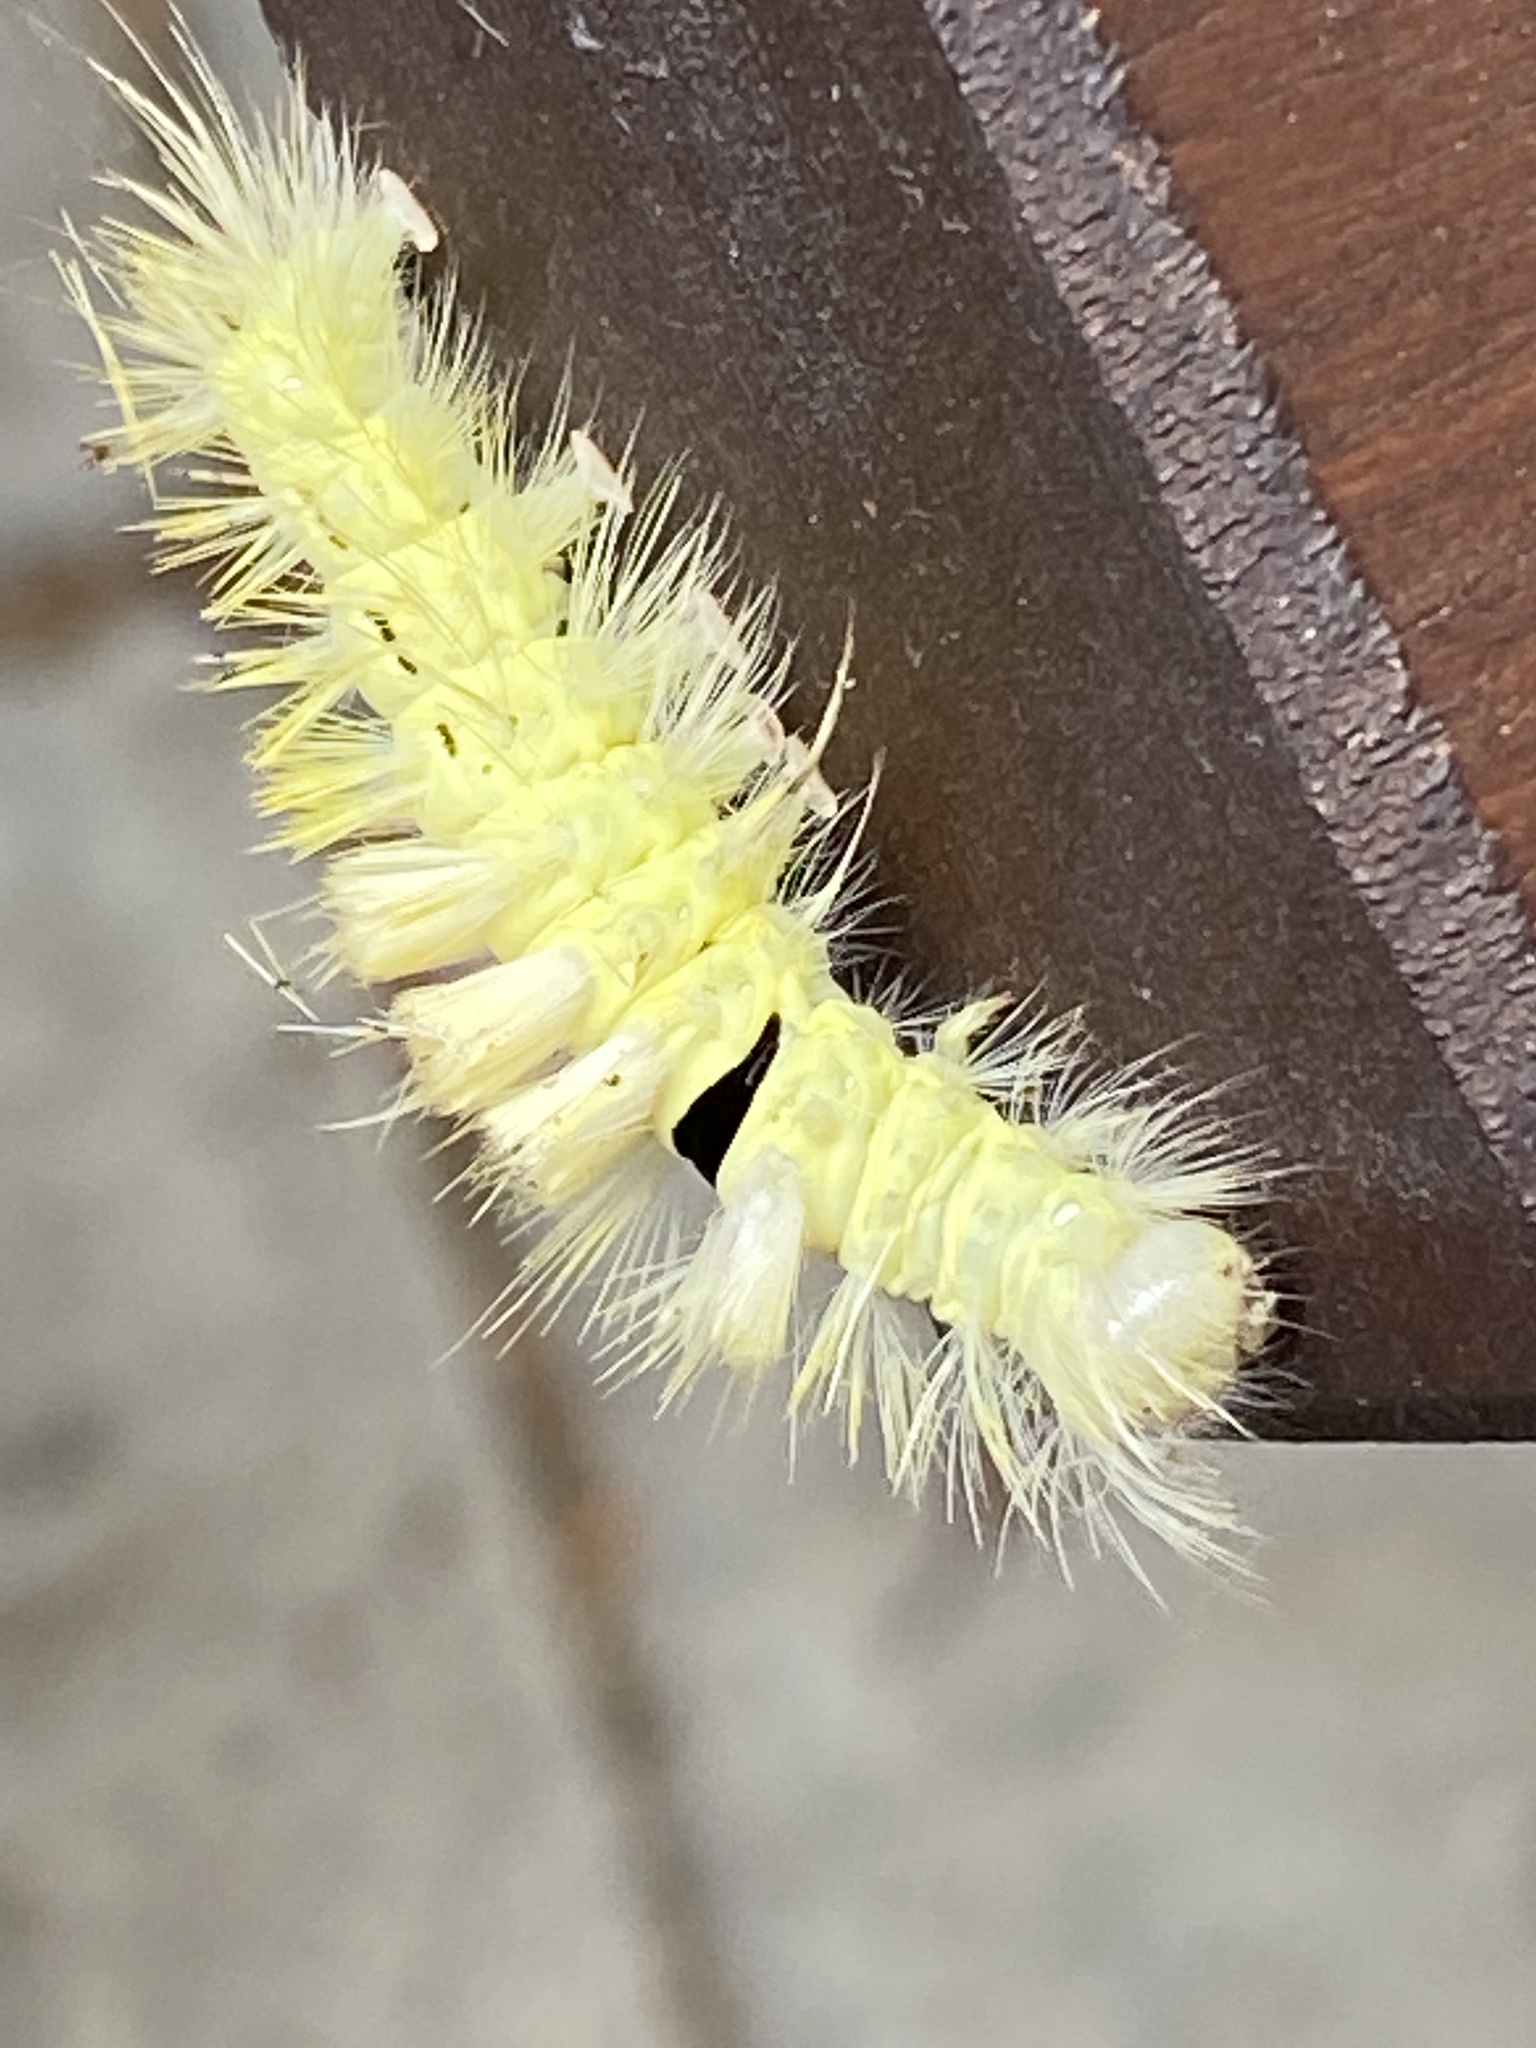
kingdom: Animalia
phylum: Arthropoda
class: Insecta
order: Lepidoptera
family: Erebidae
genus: Calliteara
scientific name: Calliteara pudibunda
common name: Pale tussock
